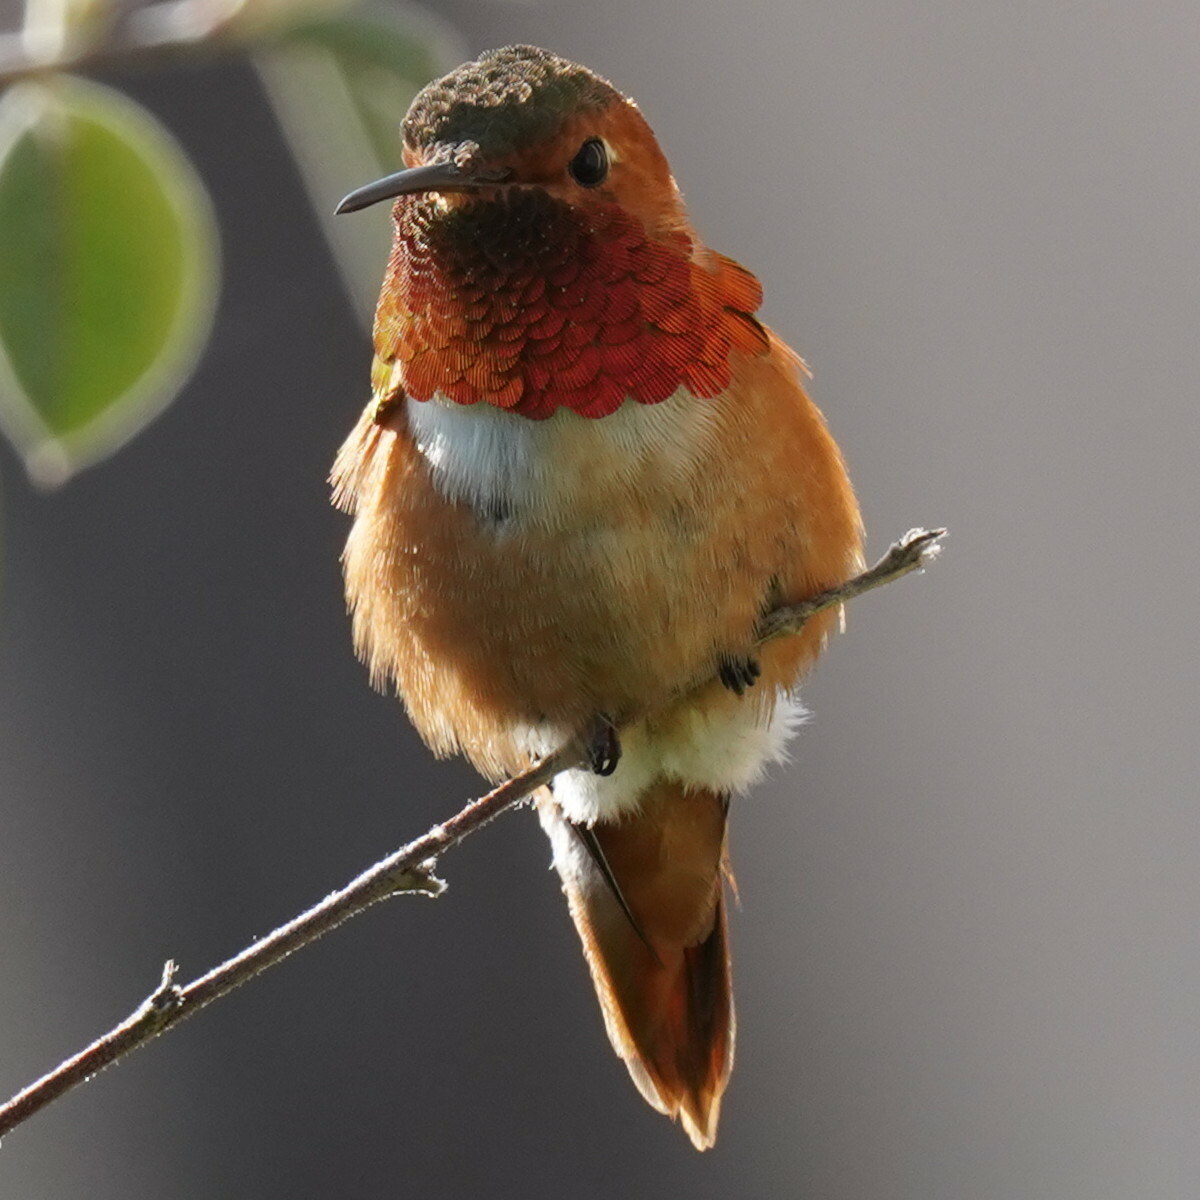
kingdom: Animalia
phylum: Chordata
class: Aves
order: Apodiformes
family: Trochilidae
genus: Selasphorus
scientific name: Selasphorus sasin
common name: Allen's hummingbird
